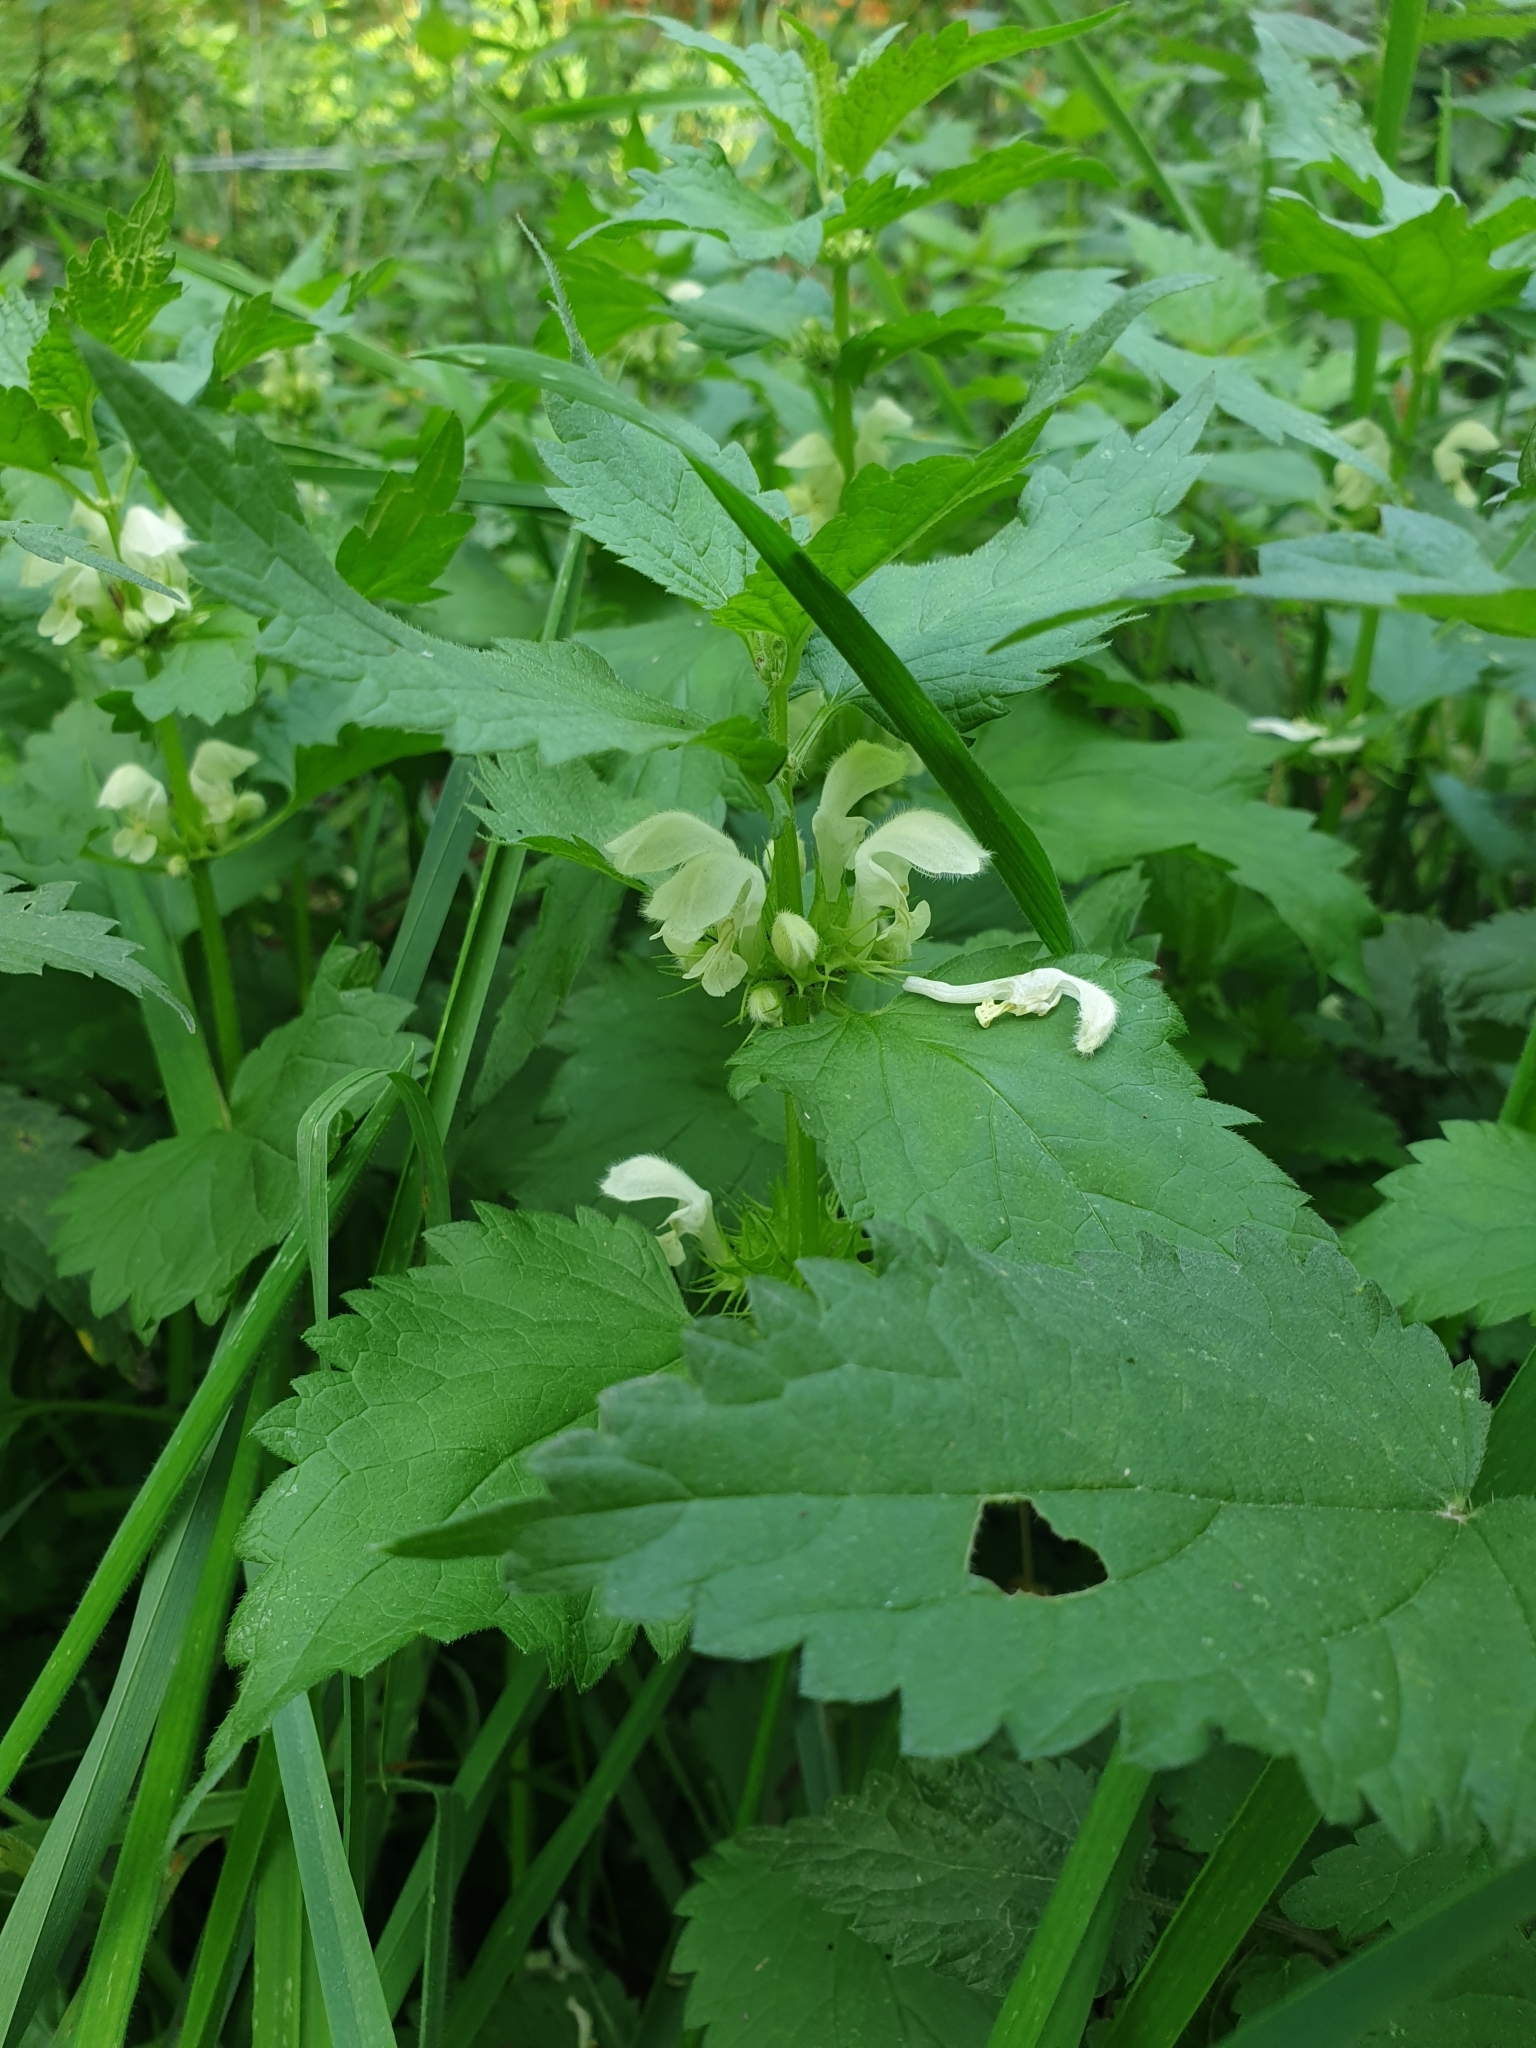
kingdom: Plantae
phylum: Tracheophyta
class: Magnoliopsida
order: Lamiales
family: Lamiaceae
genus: Lamium
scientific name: Lamium album
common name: White dead-nettle
